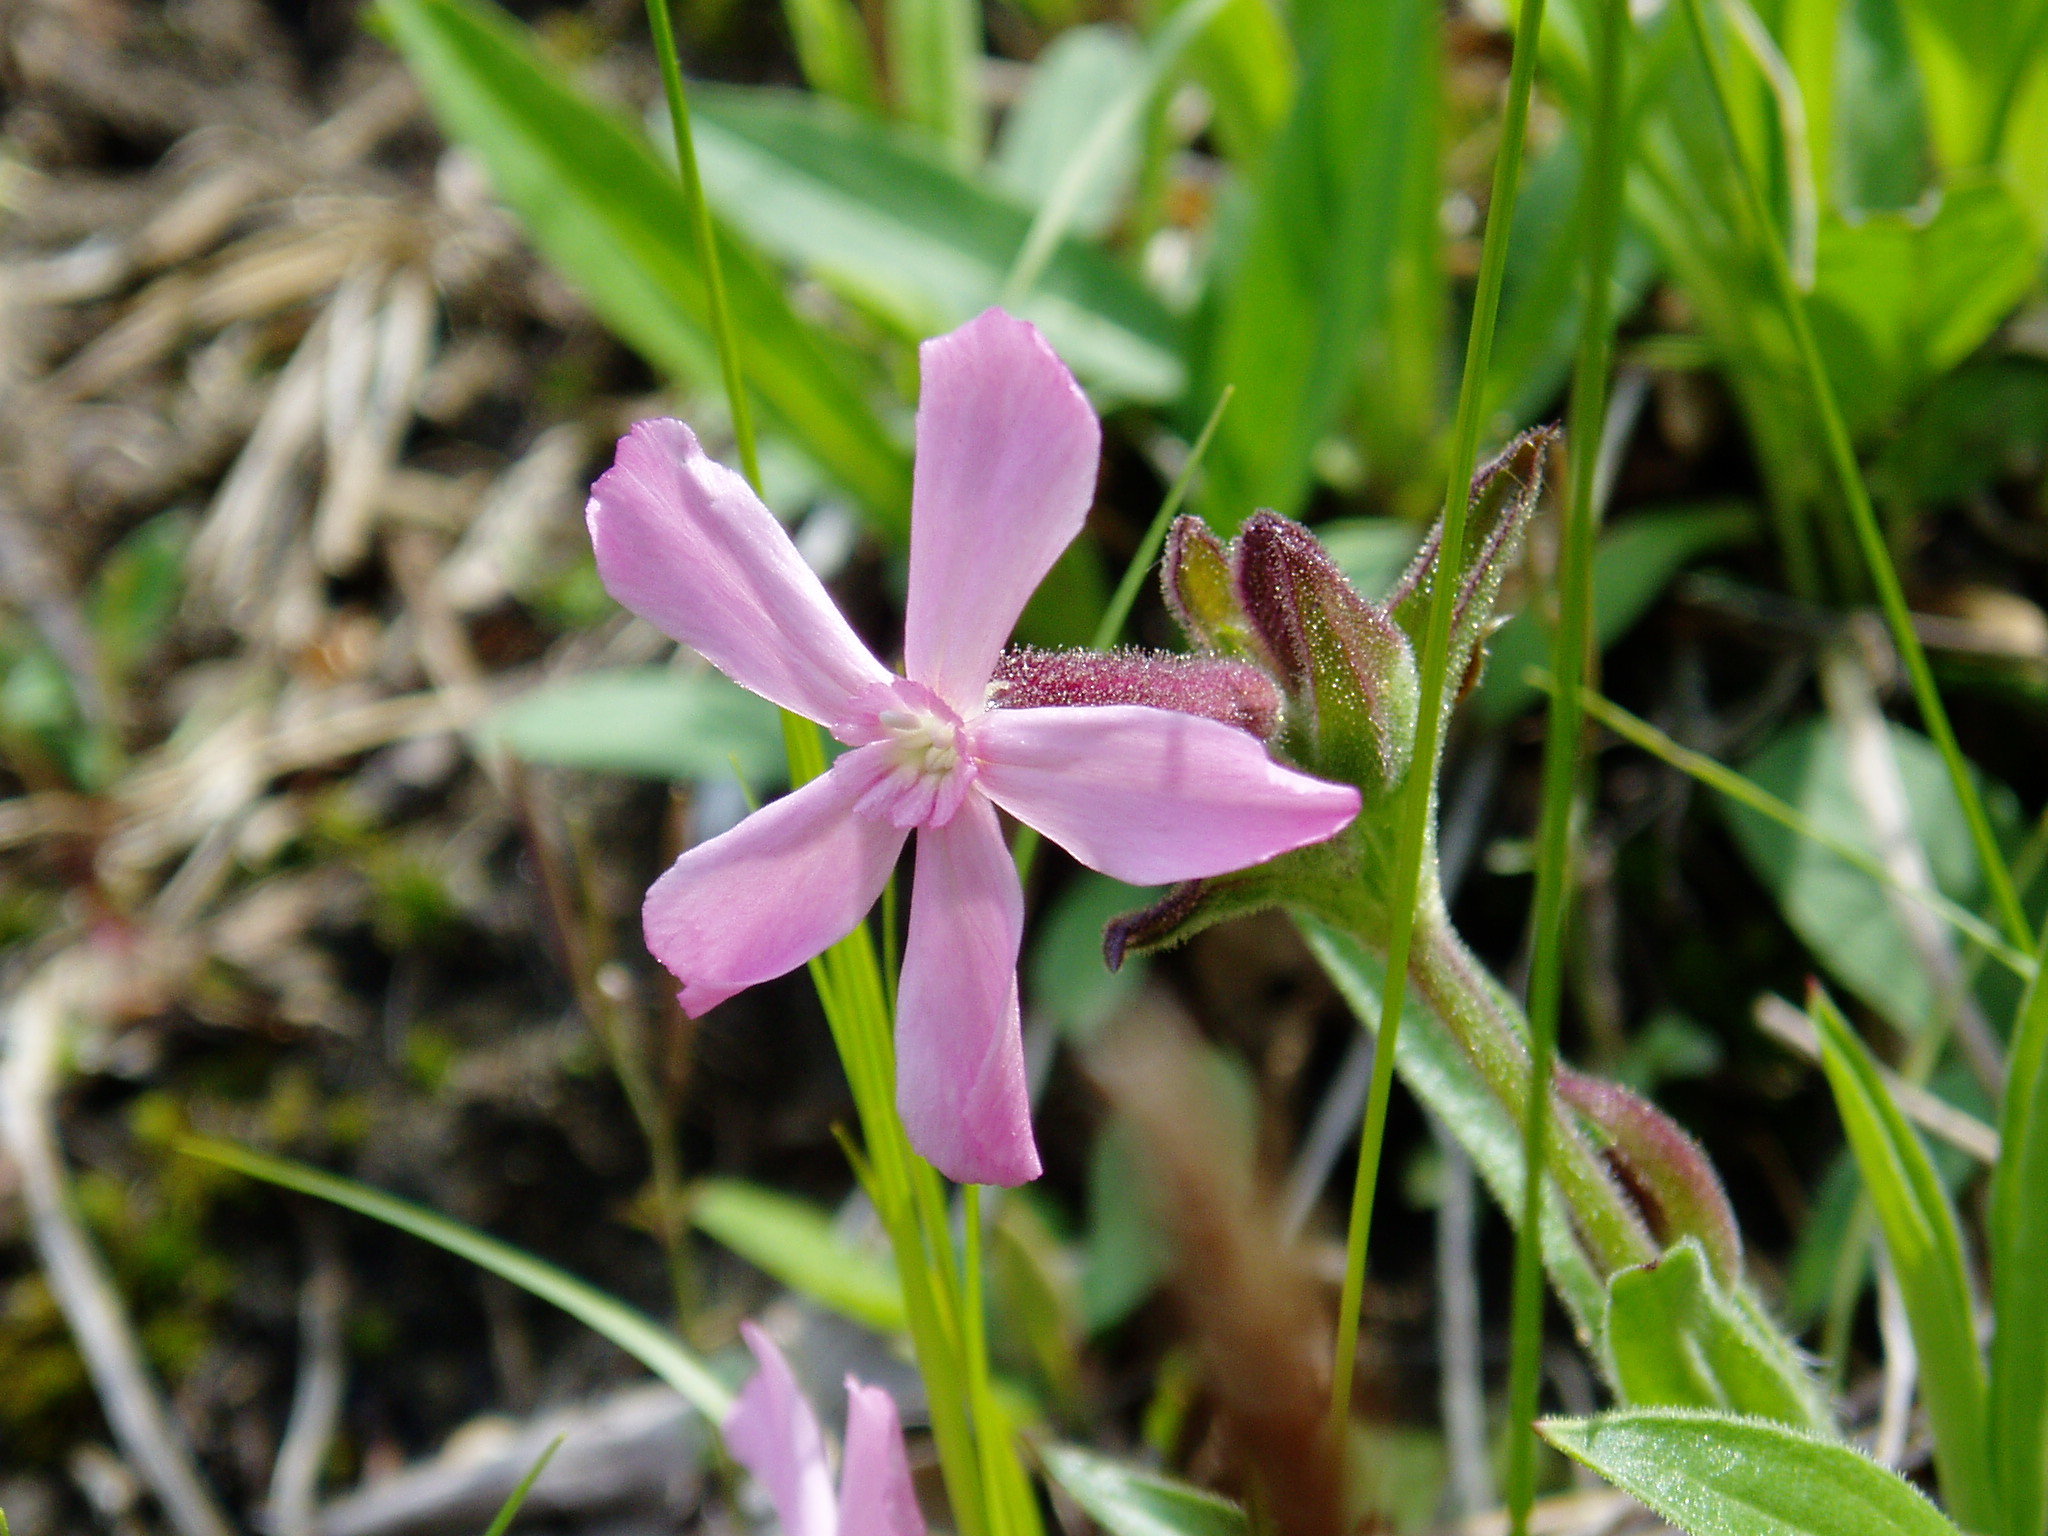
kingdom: Plantae
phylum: Tracheophyta
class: Magnoliopsida
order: Caryophyllales
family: Caryophyllaceae
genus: Silene
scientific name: Silene caroliniana
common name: Sticky catchfly
